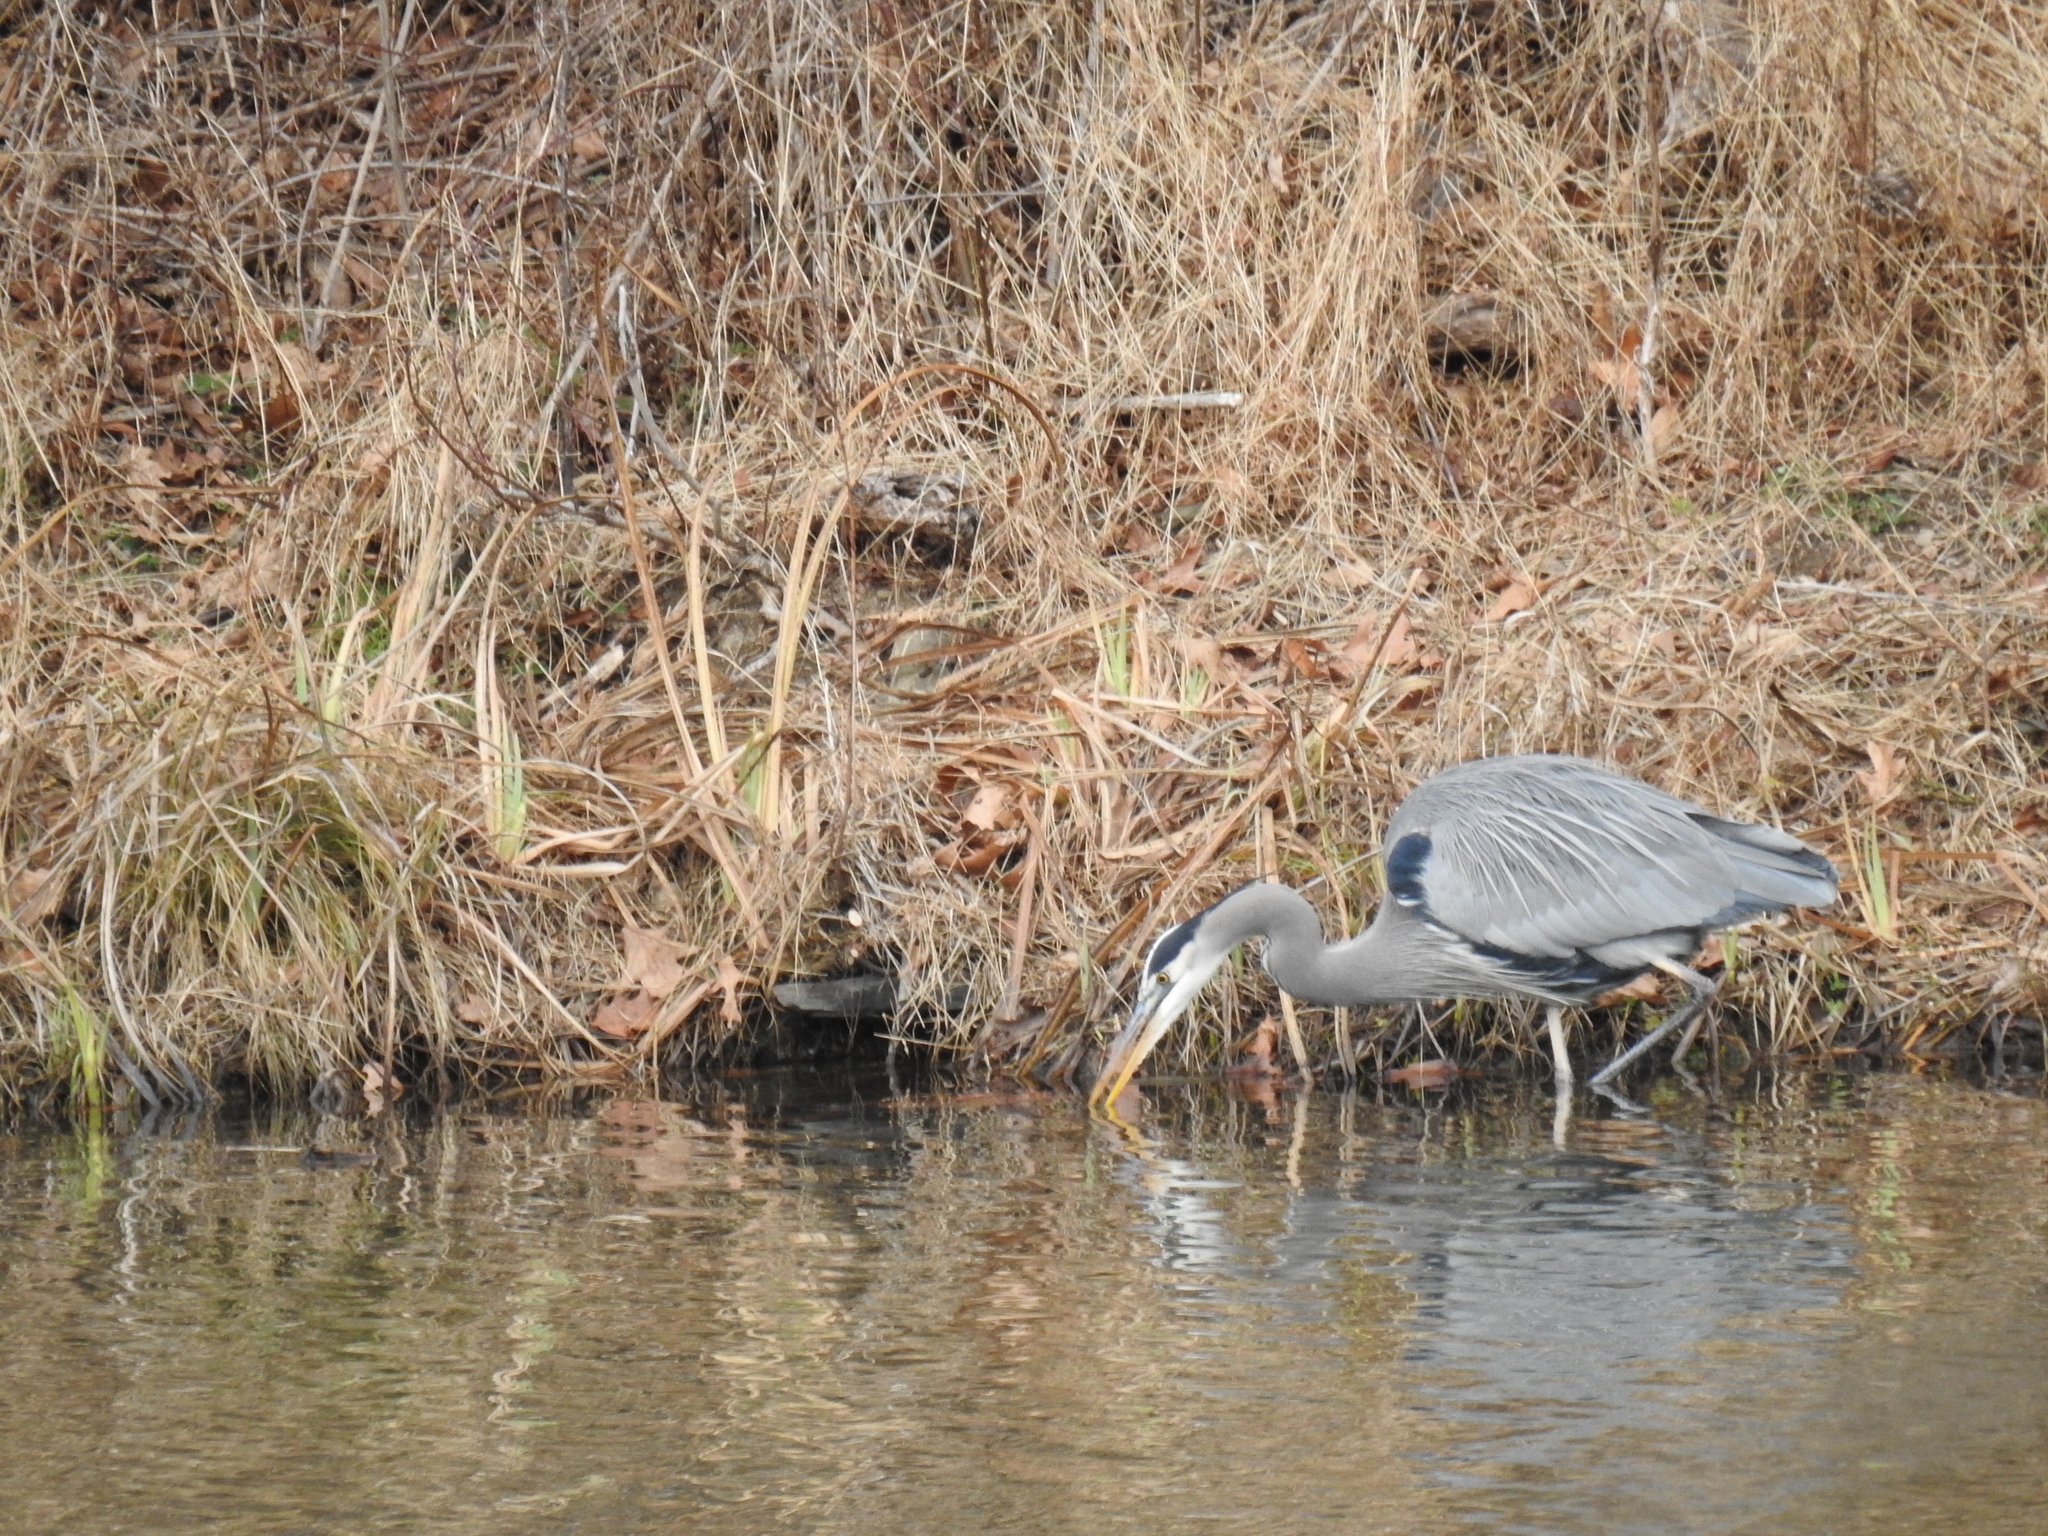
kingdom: Animalia
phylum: Chordata
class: Aves
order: Pelecaniformes
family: Ardeidae
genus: Ardea
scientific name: Ardea herodias
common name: Great blue heron
